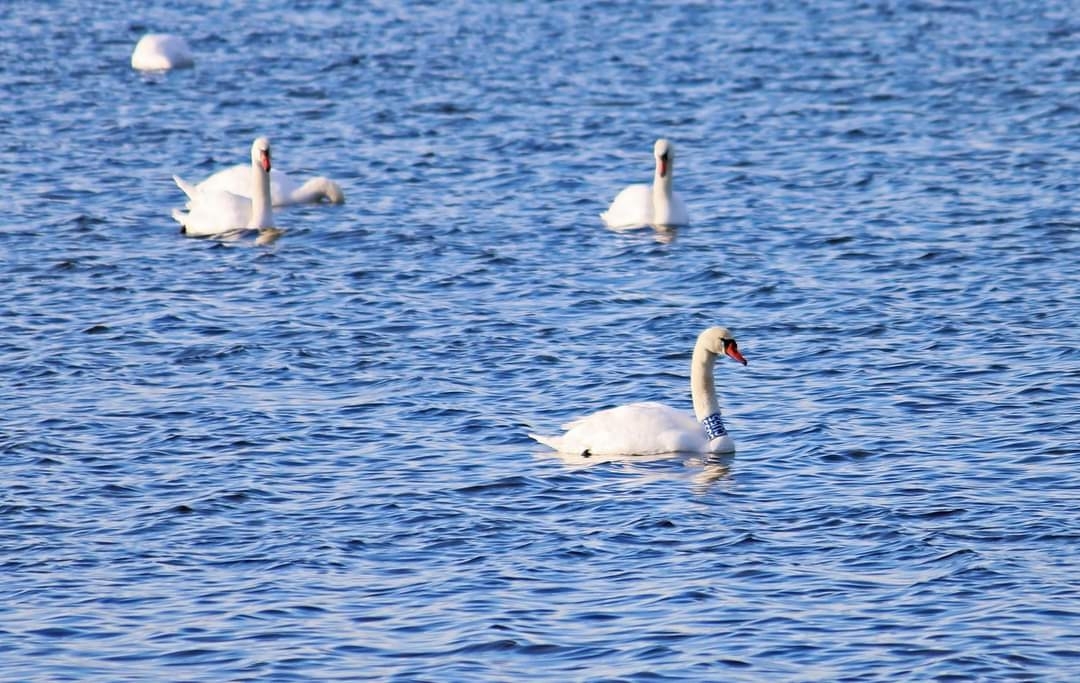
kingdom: Animalia
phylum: Chordata
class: Aves
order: Anseriformes
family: Anatidae
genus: Cygnus
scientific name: Cygnus olor
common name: Mute swan
